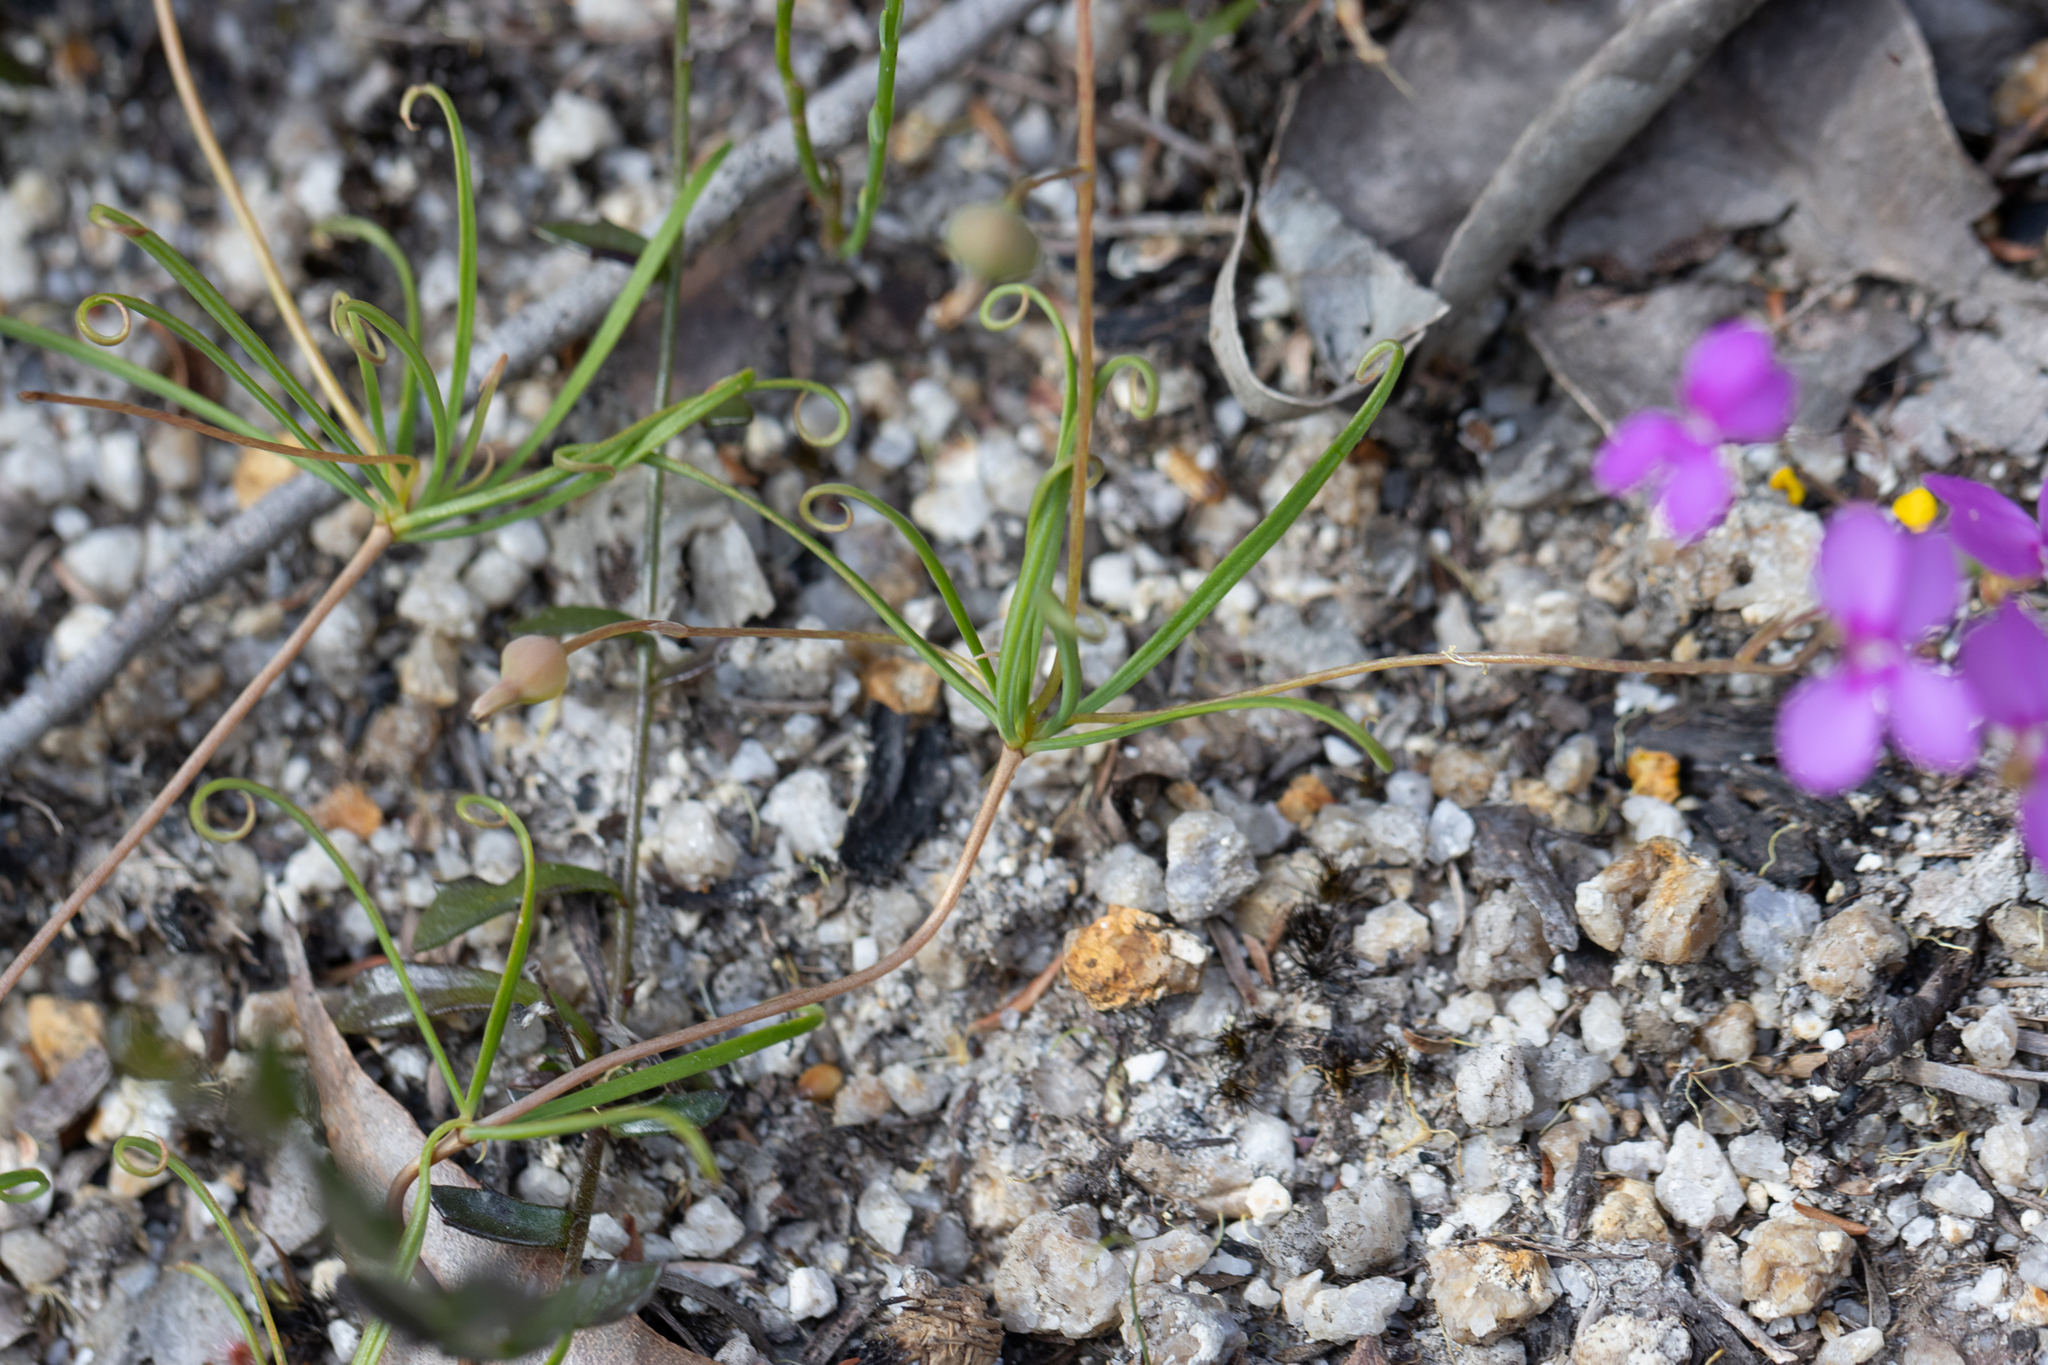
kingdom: Plantae
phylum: Tracheophyta
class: Magnoliopsida
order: Asterales
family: Stylidiaceae
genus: Stylidium
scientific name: Stylidium scandens
